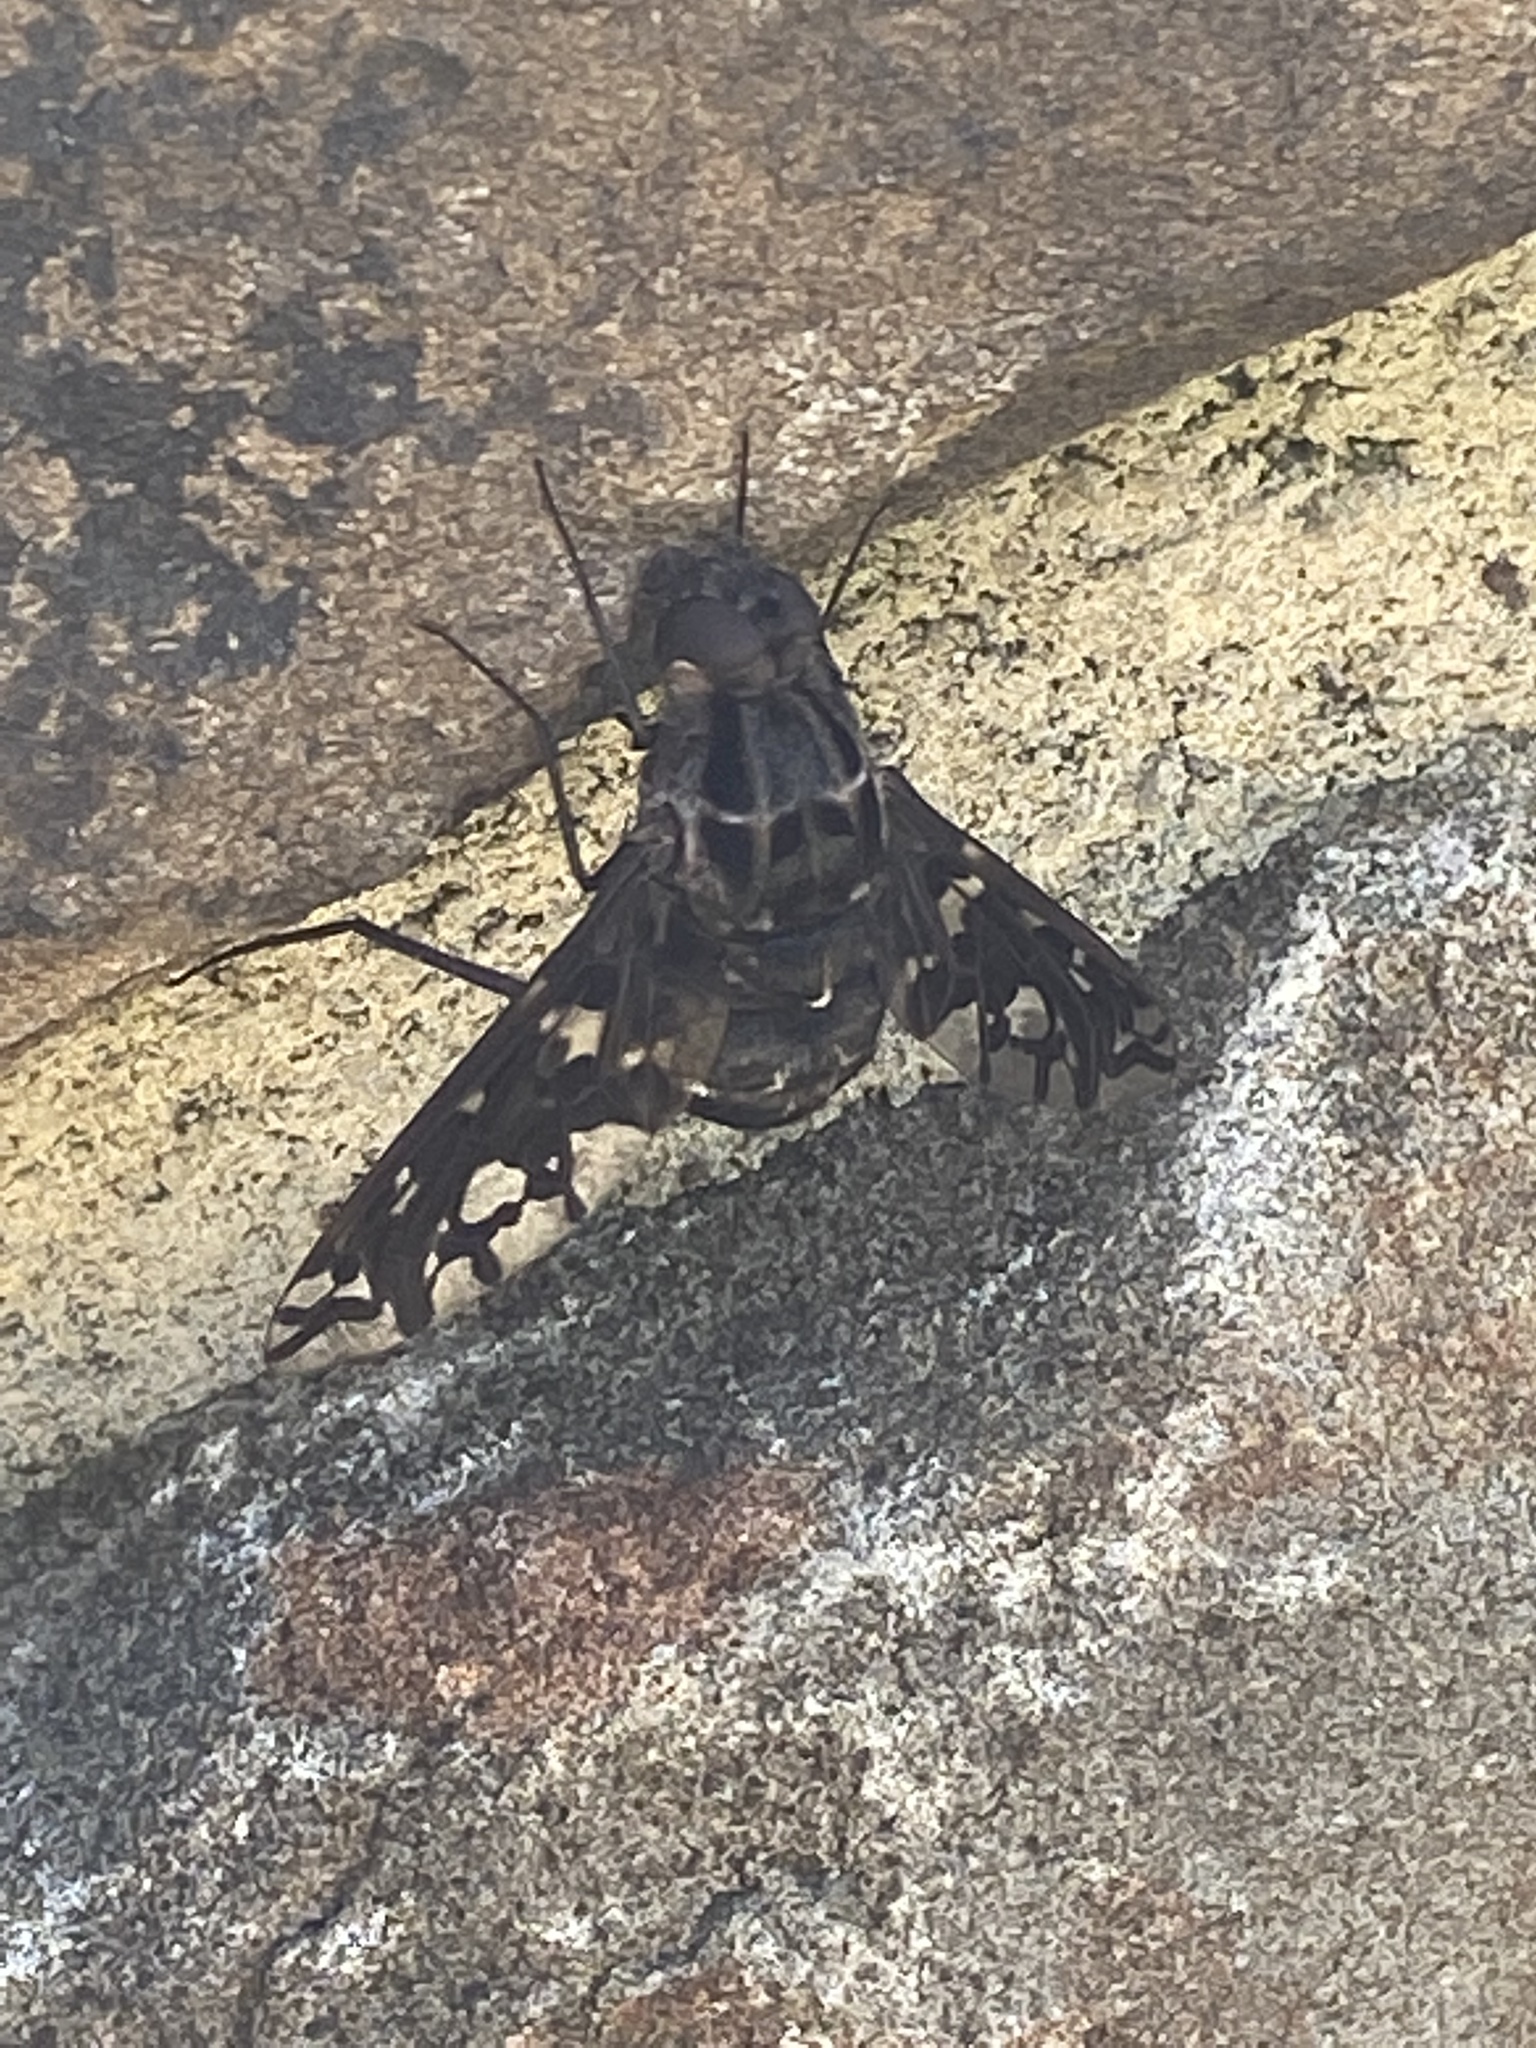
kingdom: Animalia
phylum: Arthropoda
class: Insecta
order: Diptera
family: Bombyliidae
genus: Xenox
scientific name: Xenox tigrinus
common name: Tiger bee fly
